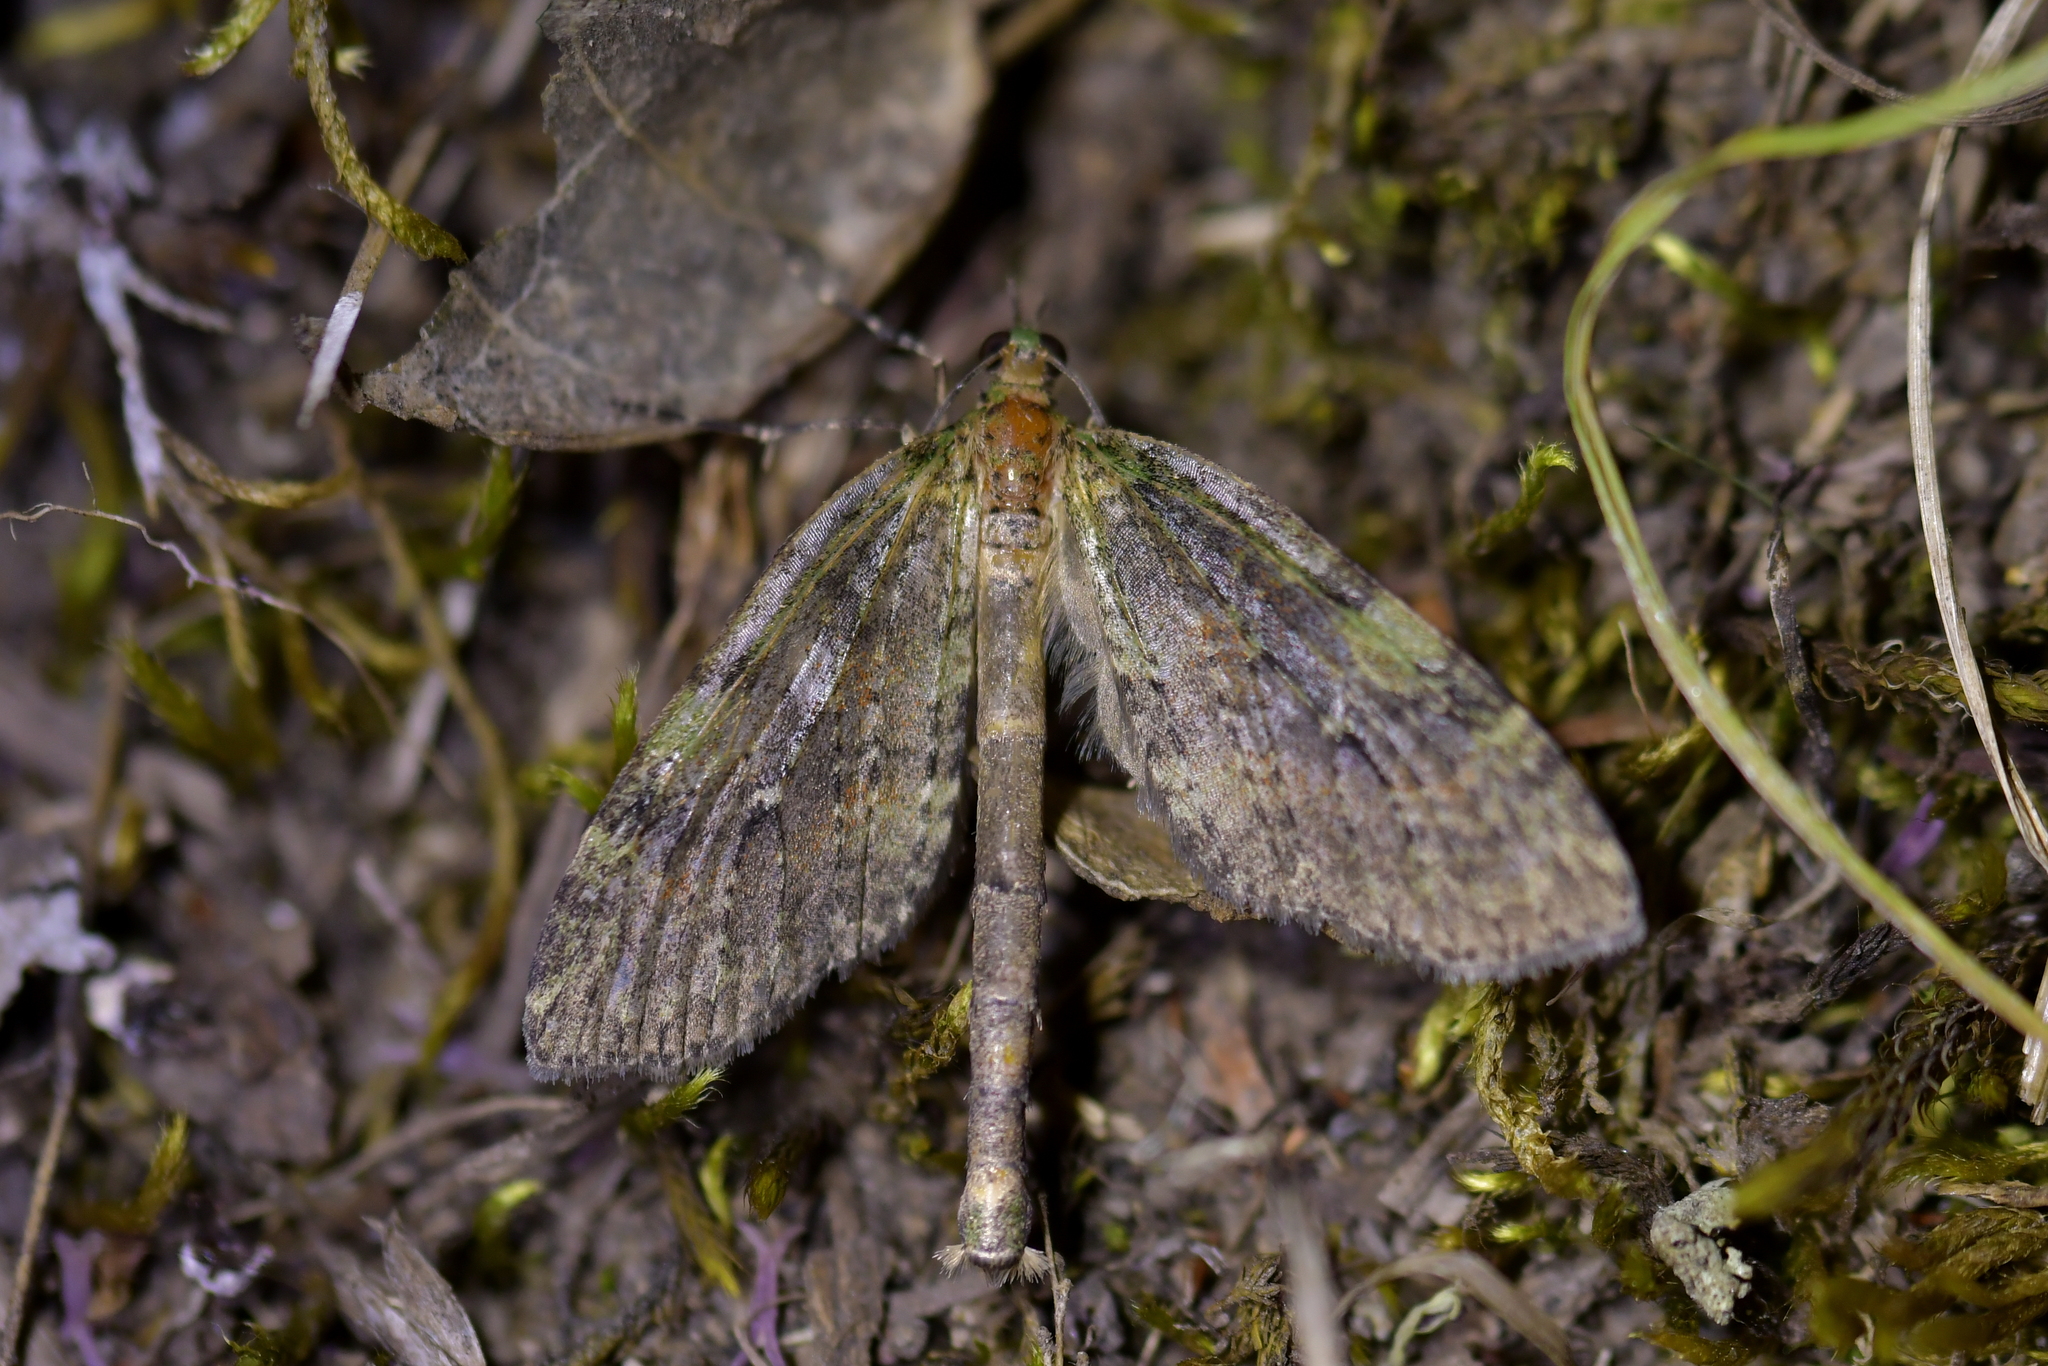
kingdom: Animalia
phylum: Arthropoda
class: Insecta
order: Lepidoptera
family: Geometridae
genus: Tatosoma
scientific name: Tatosoma transitaria
